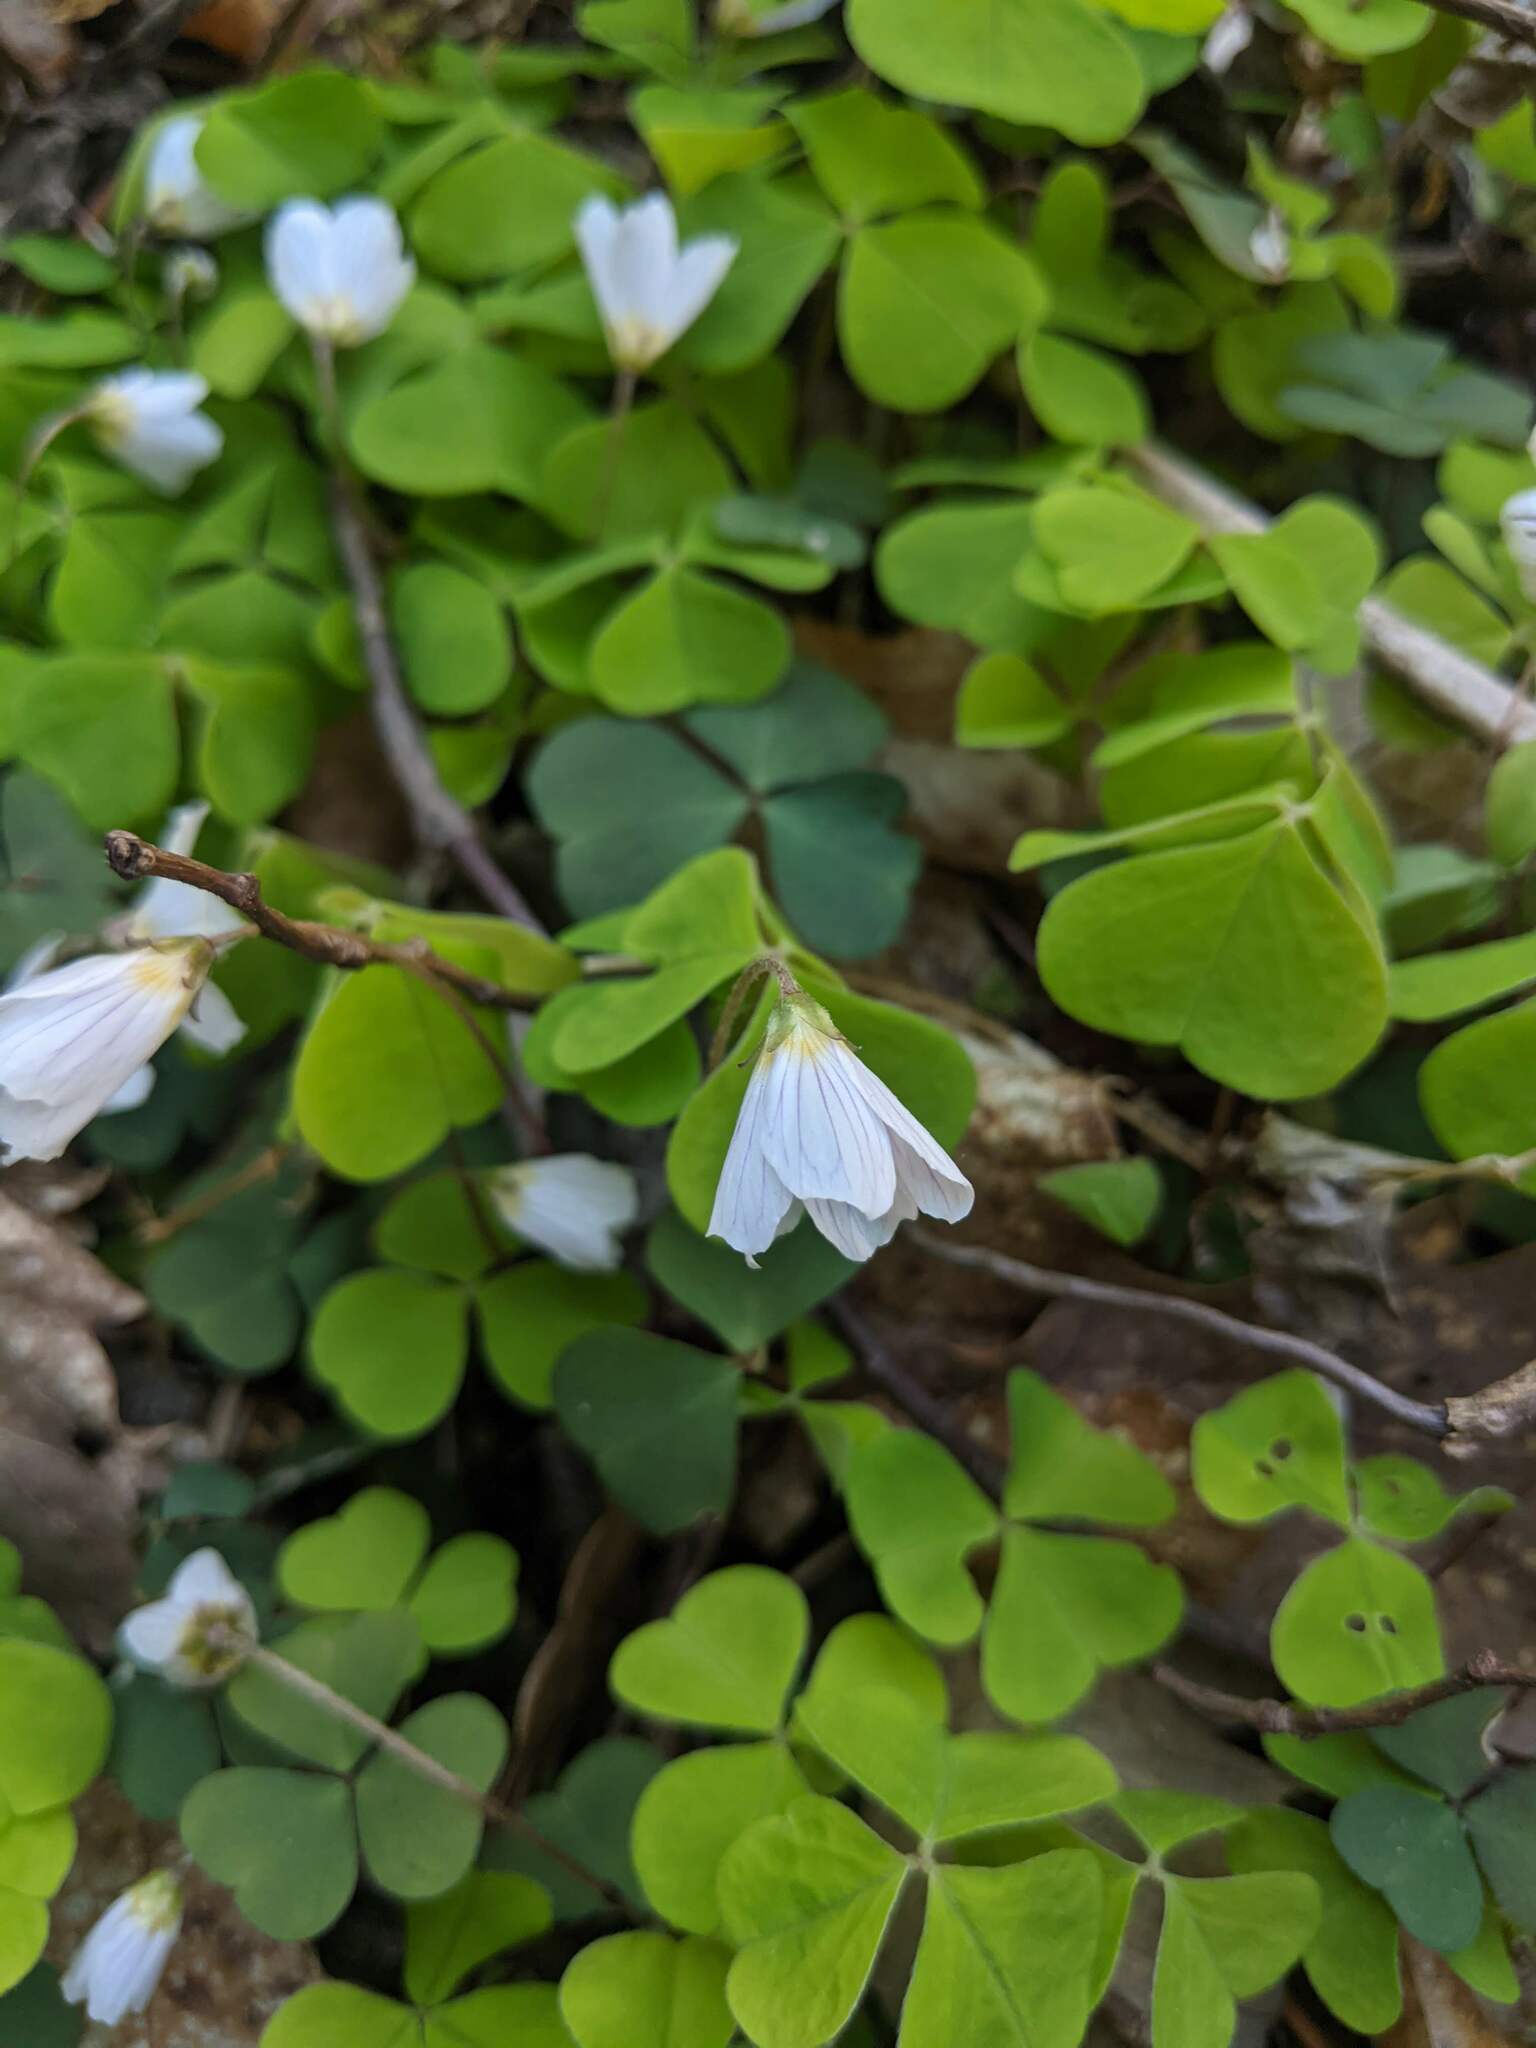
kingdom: Plantae
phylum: Tracheophyta
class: Magnoliopsida
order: Oxalidales
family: Oxalidaceae
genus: Oxalis
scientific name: Oxalis acetosella
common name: Wood-sorrel
